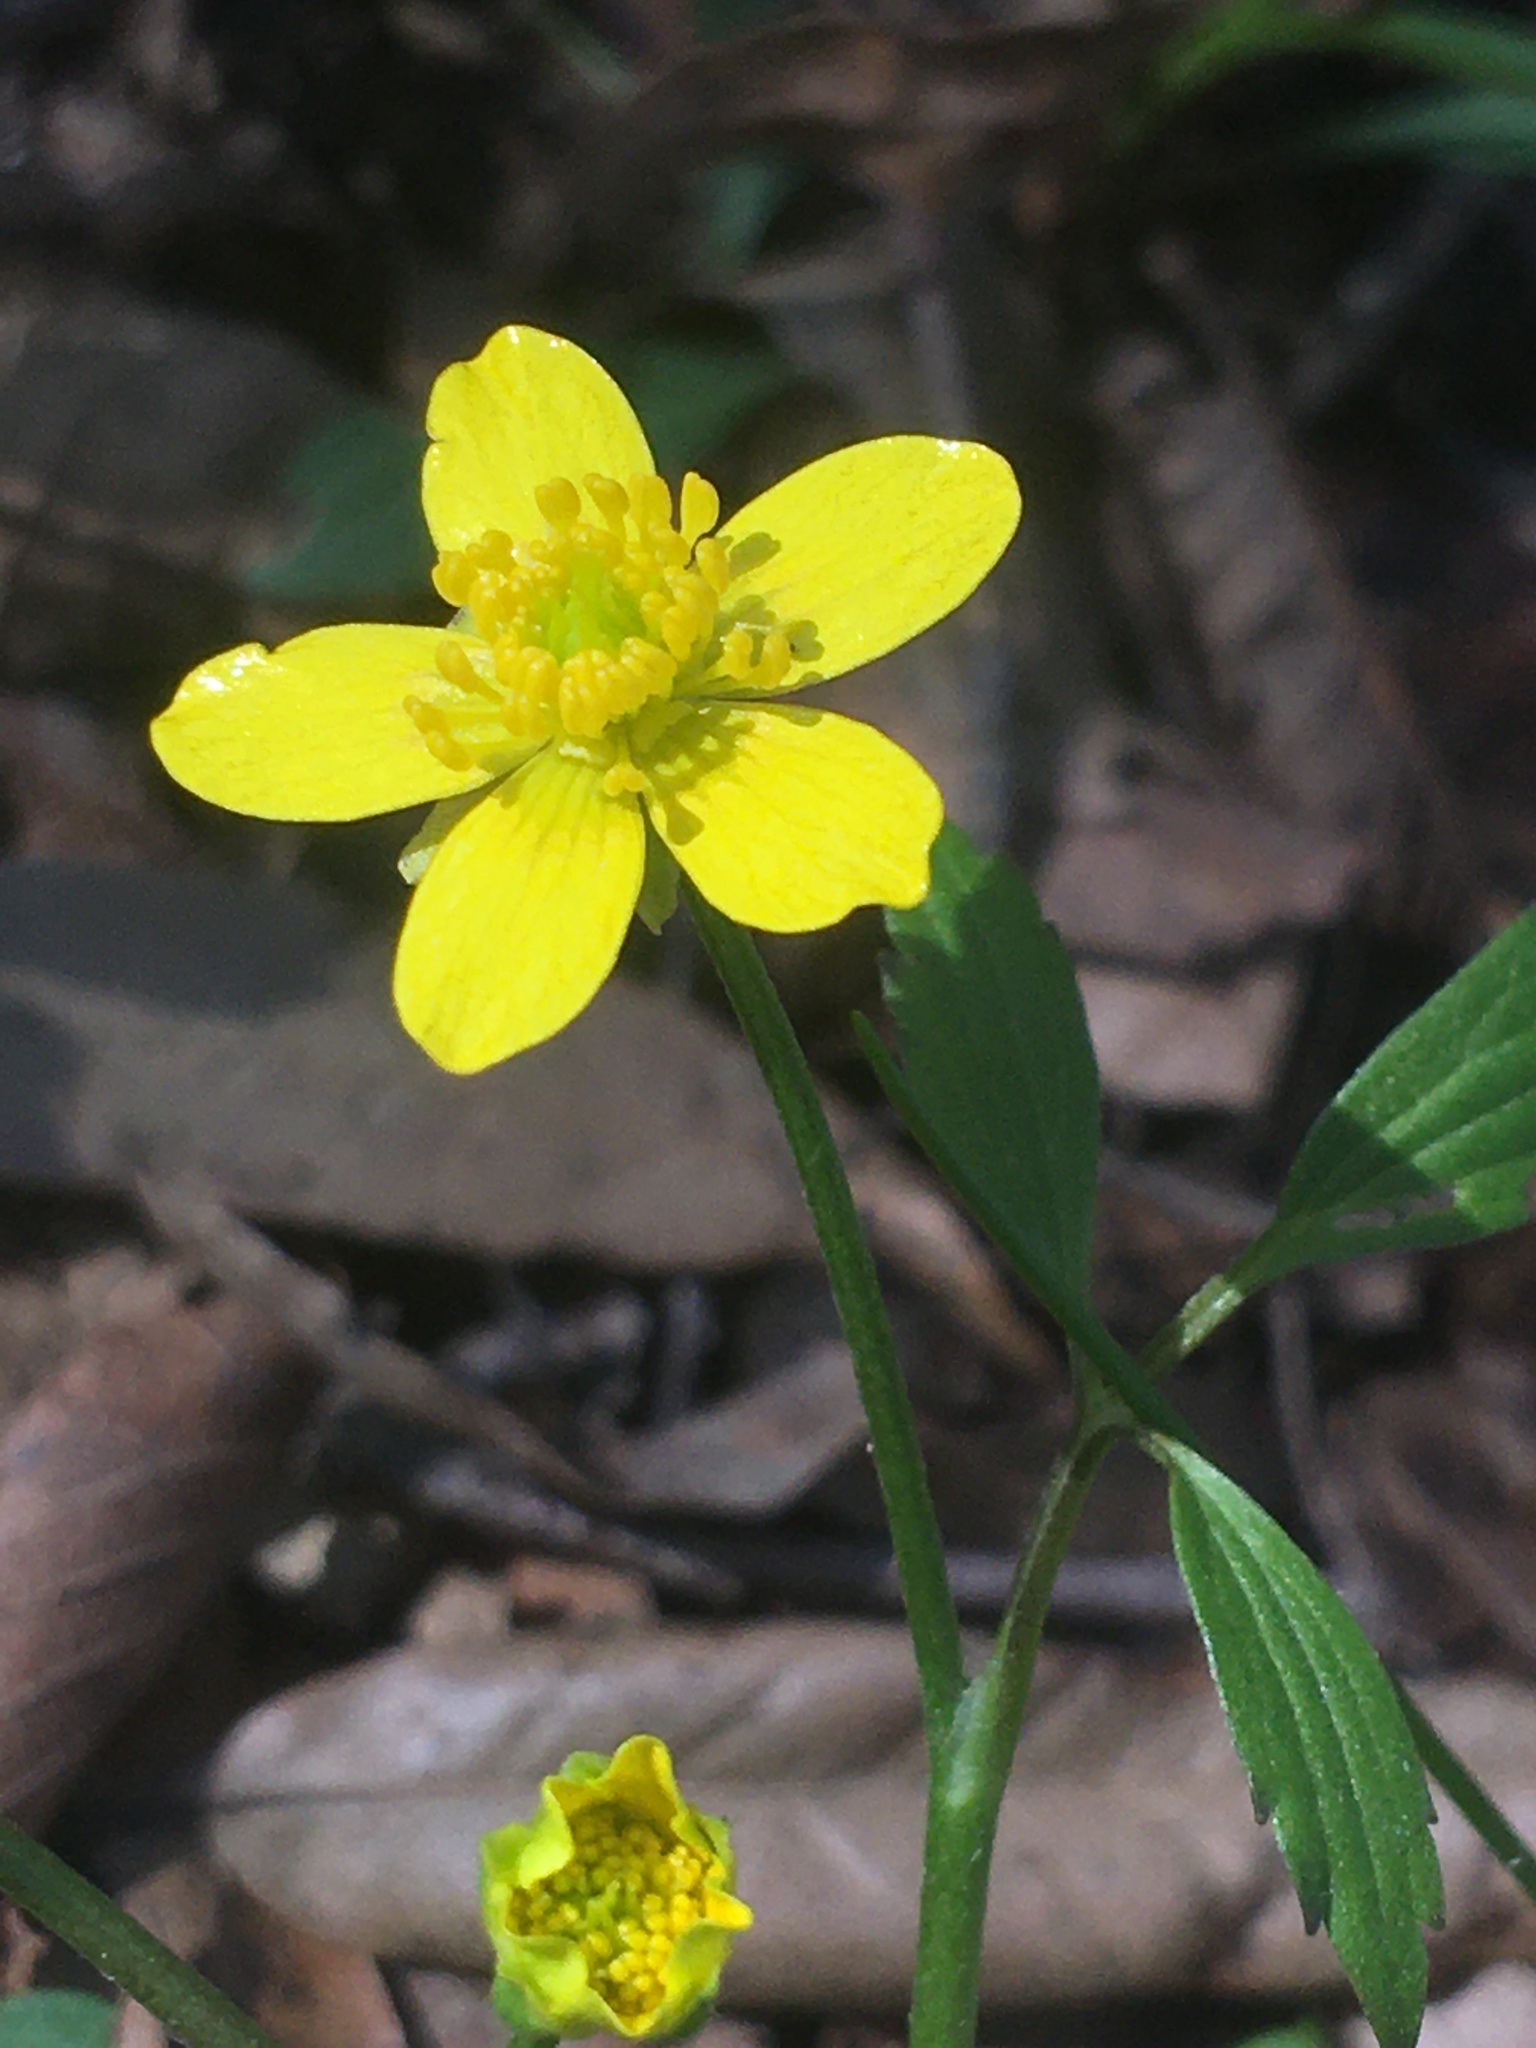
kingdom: Plantae
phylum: Tracheophyta
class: Magnoliopsida
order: Ranunculales
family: Ranunculaceae
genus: Ranunculus
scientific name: Ranunculus hispidus
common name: Bristly buttercup
